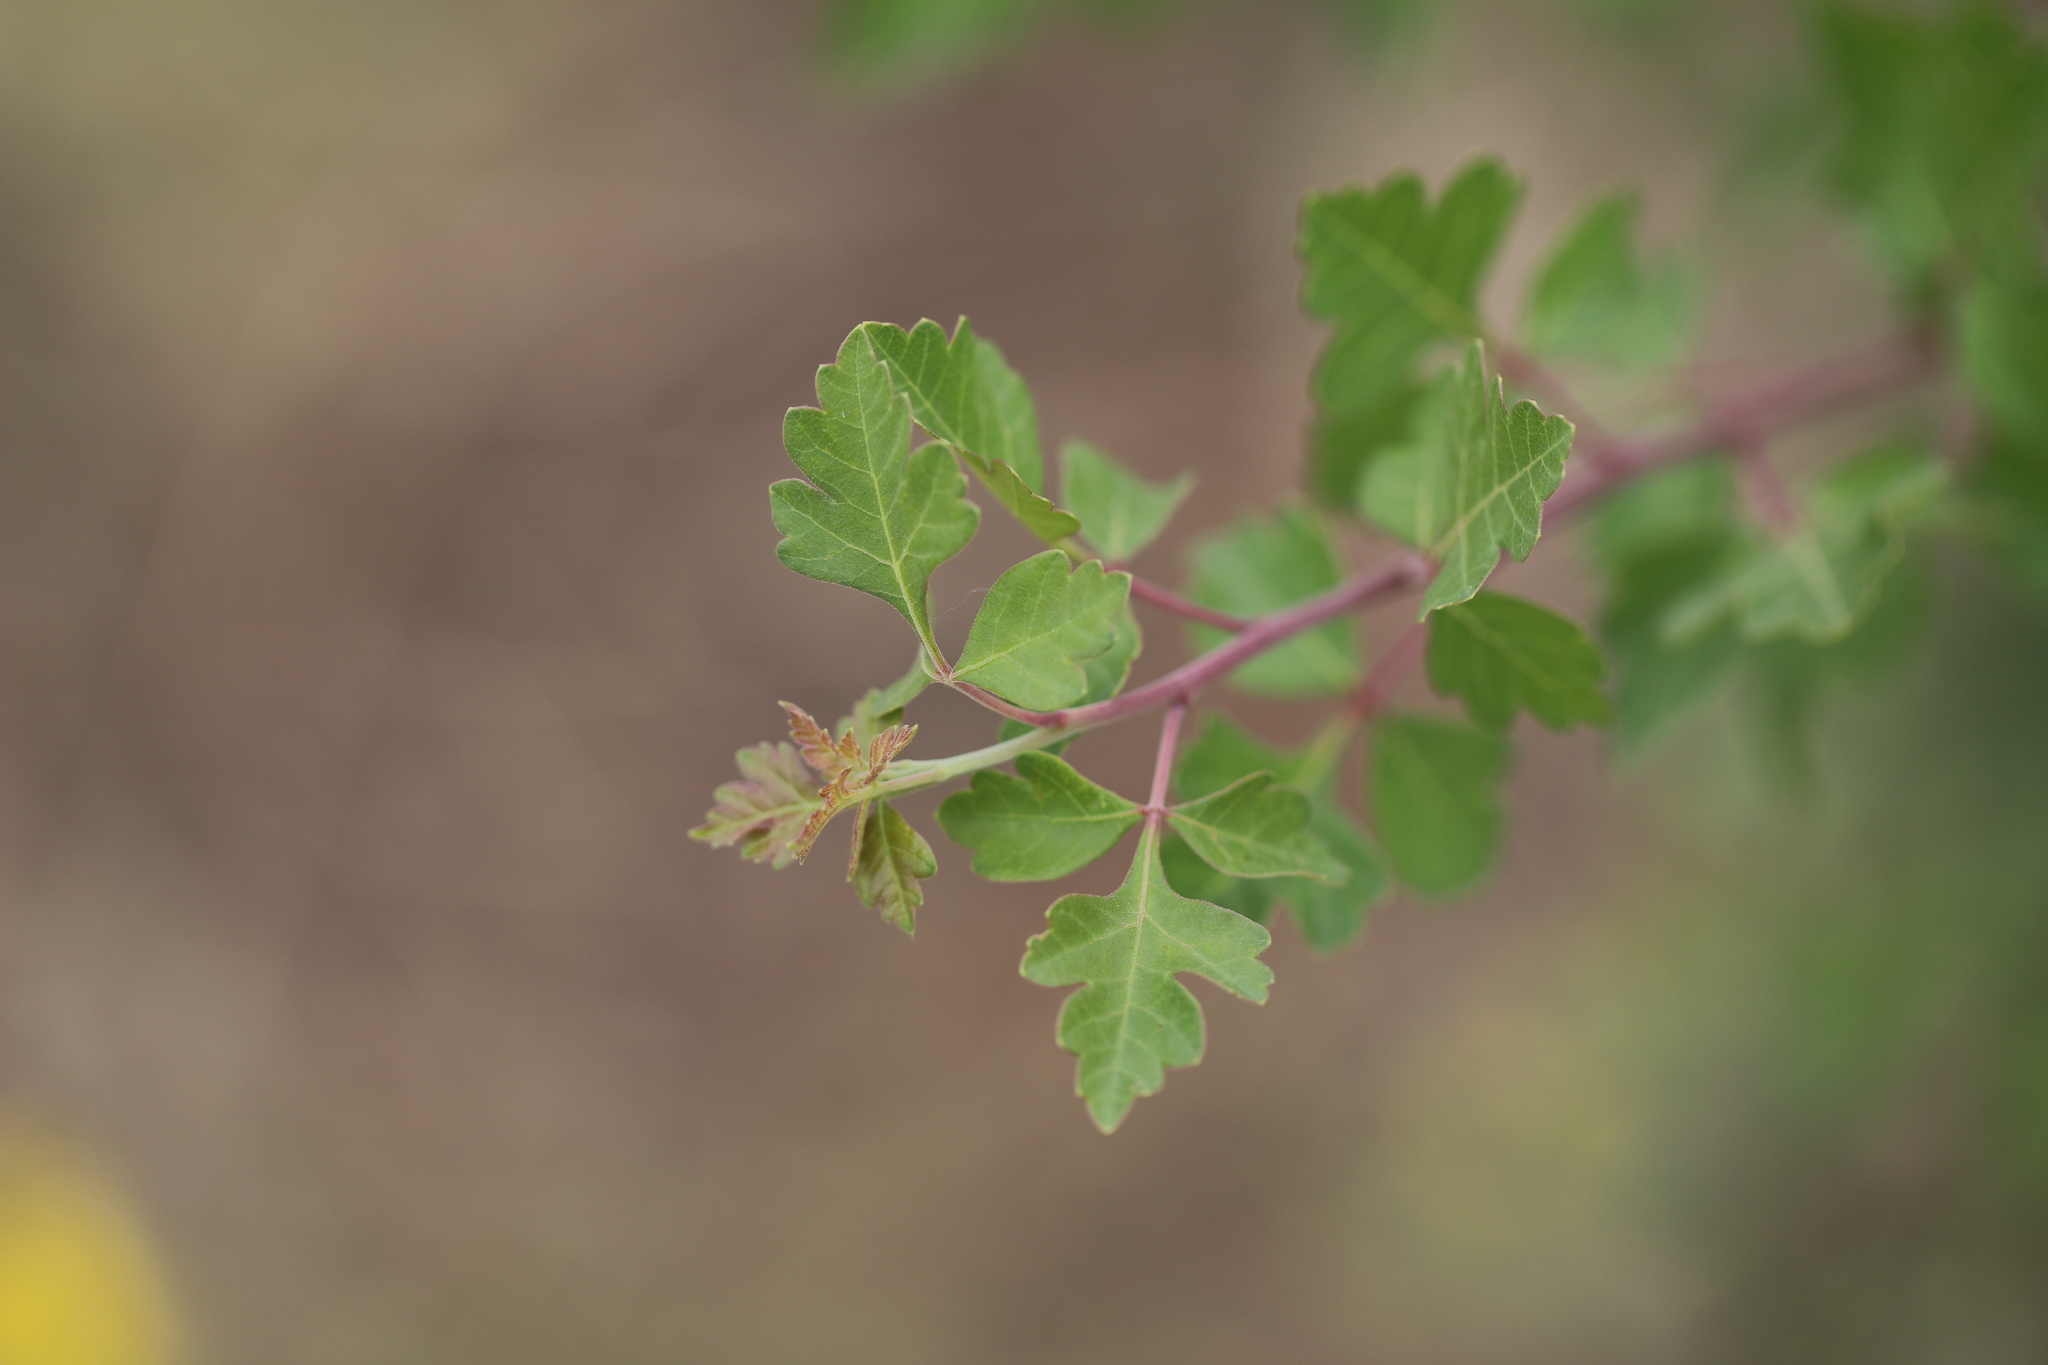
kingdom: Plantae
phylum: Tracheophyta
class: Magnoliopsida
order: Sapindales
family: Anacardiaceae
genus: Rhus
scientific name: Rhus trilobata
